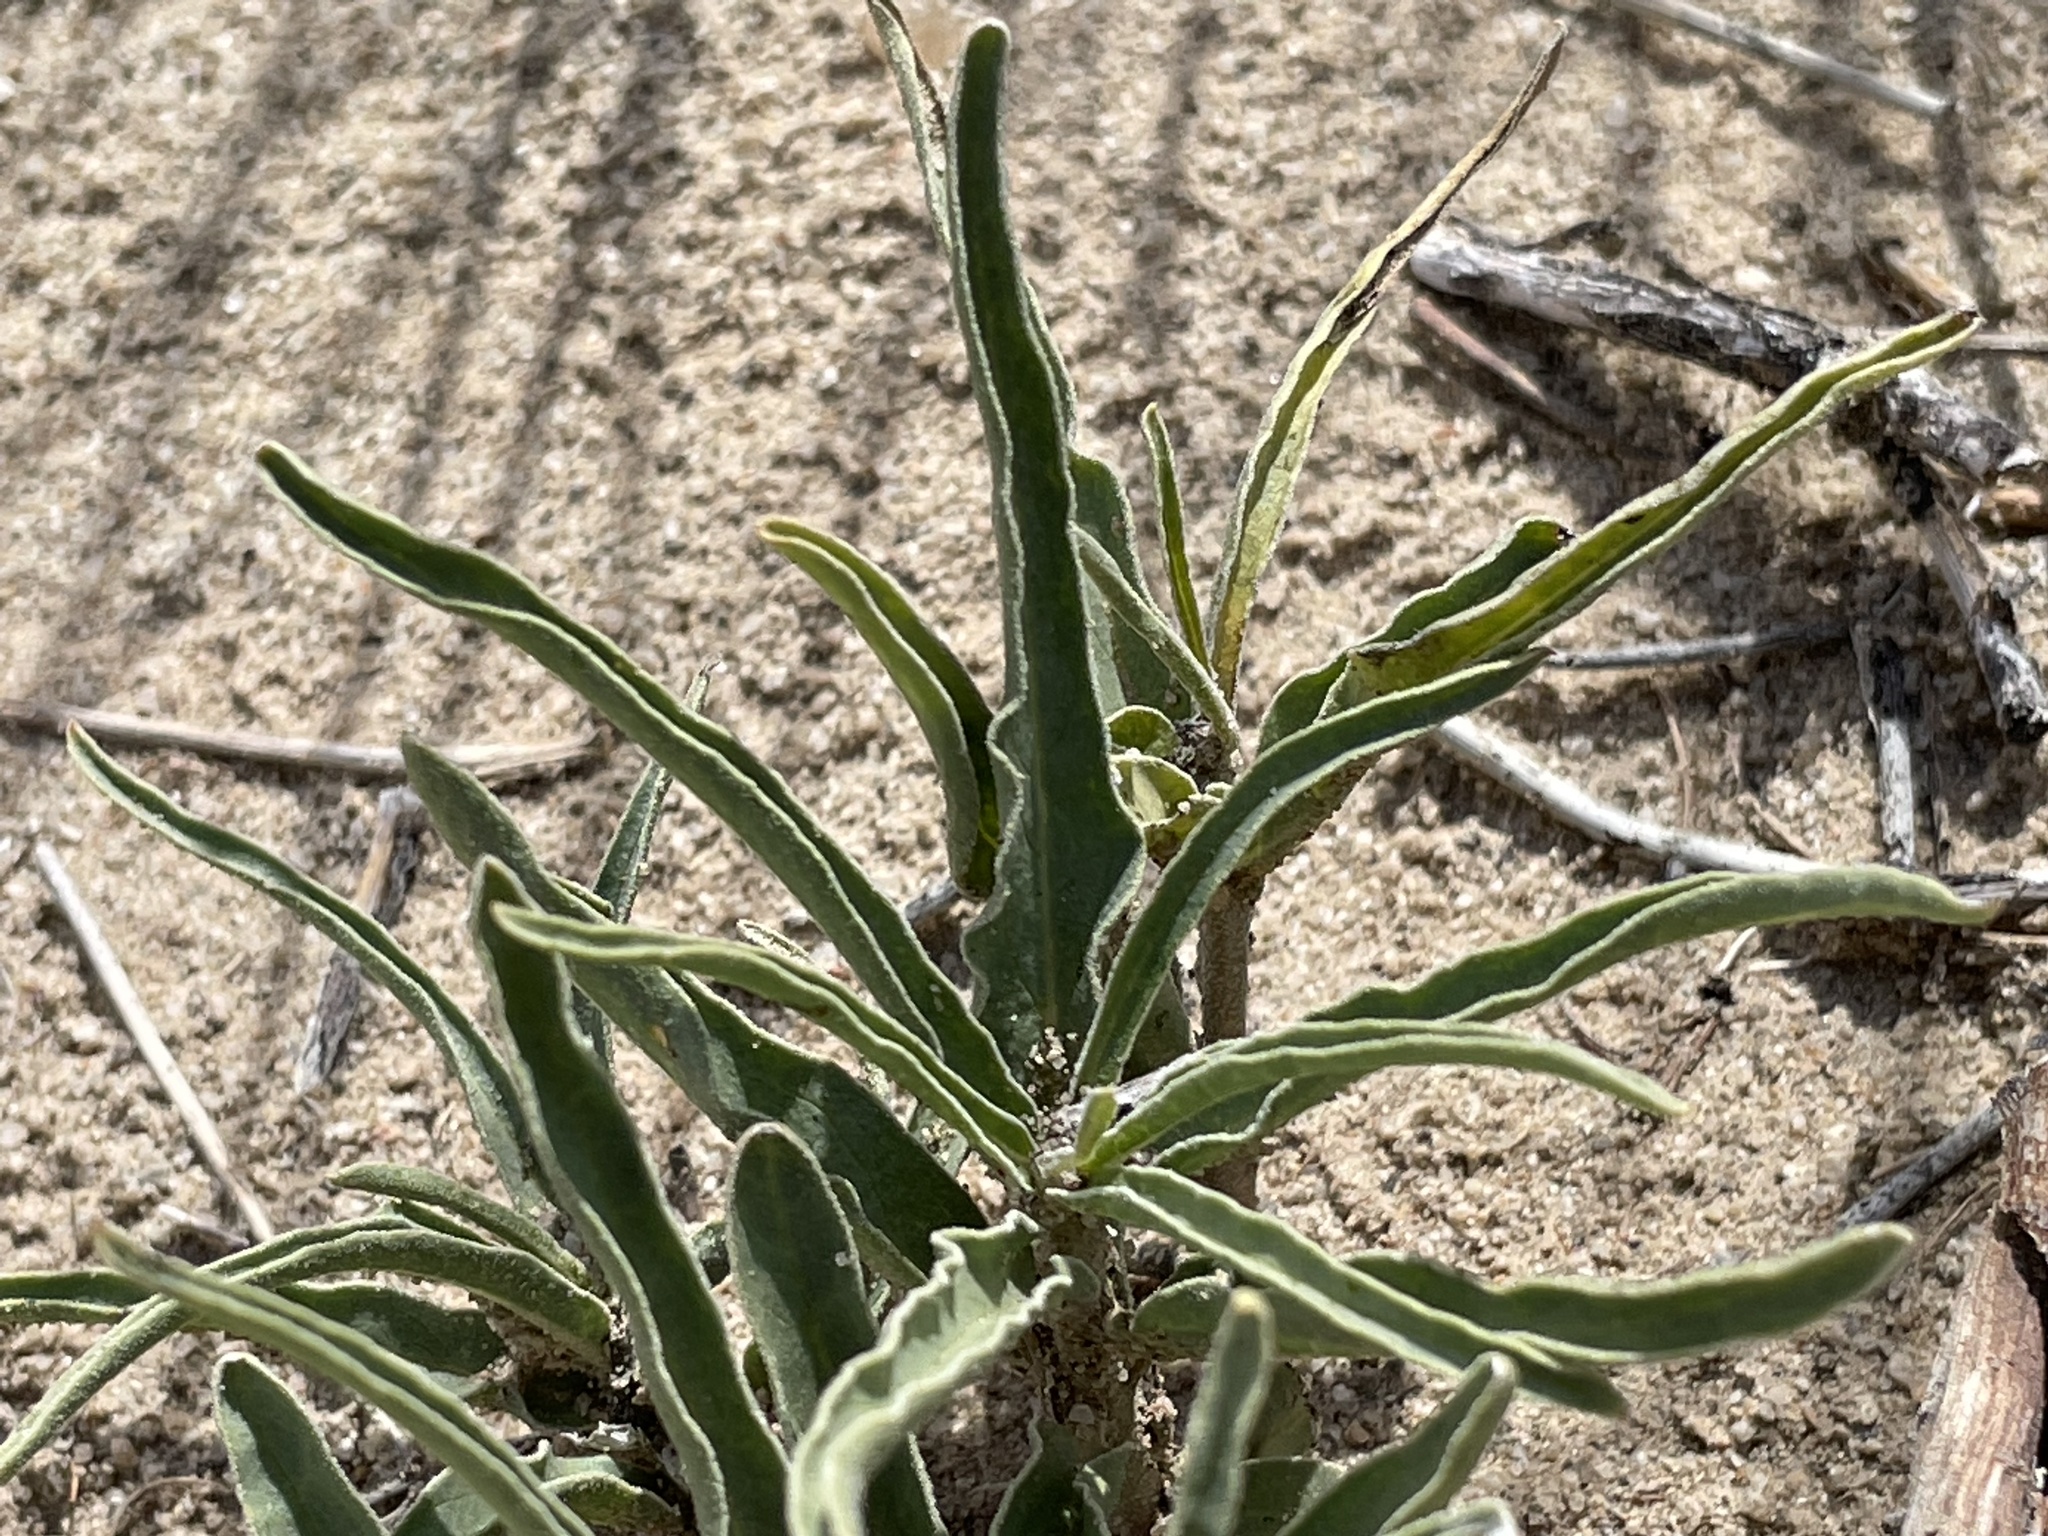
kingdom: Plantae
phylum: Tracheophyta
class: Magnoliopsida
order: Gentianales
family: Apocynaceae
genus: Asclepias
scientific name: Asclepias involucrata
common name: Dwarf milkweed
